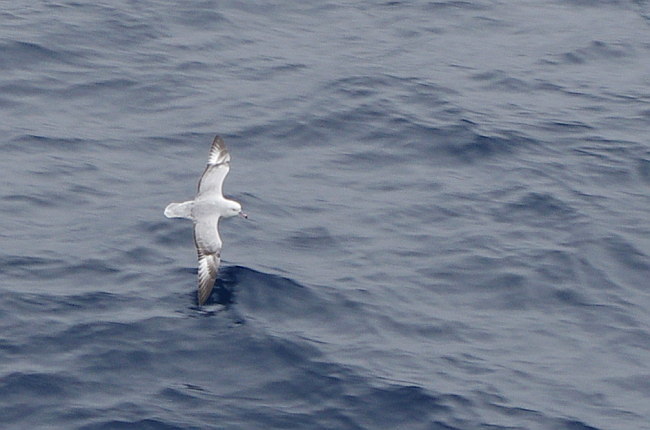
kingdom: Animalia
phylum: Chordata
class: Aves
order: Procellariiformes
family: Procellariidae
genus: Fulmarus
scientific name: Fulmarus glacialoides
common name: Southern fulmar
